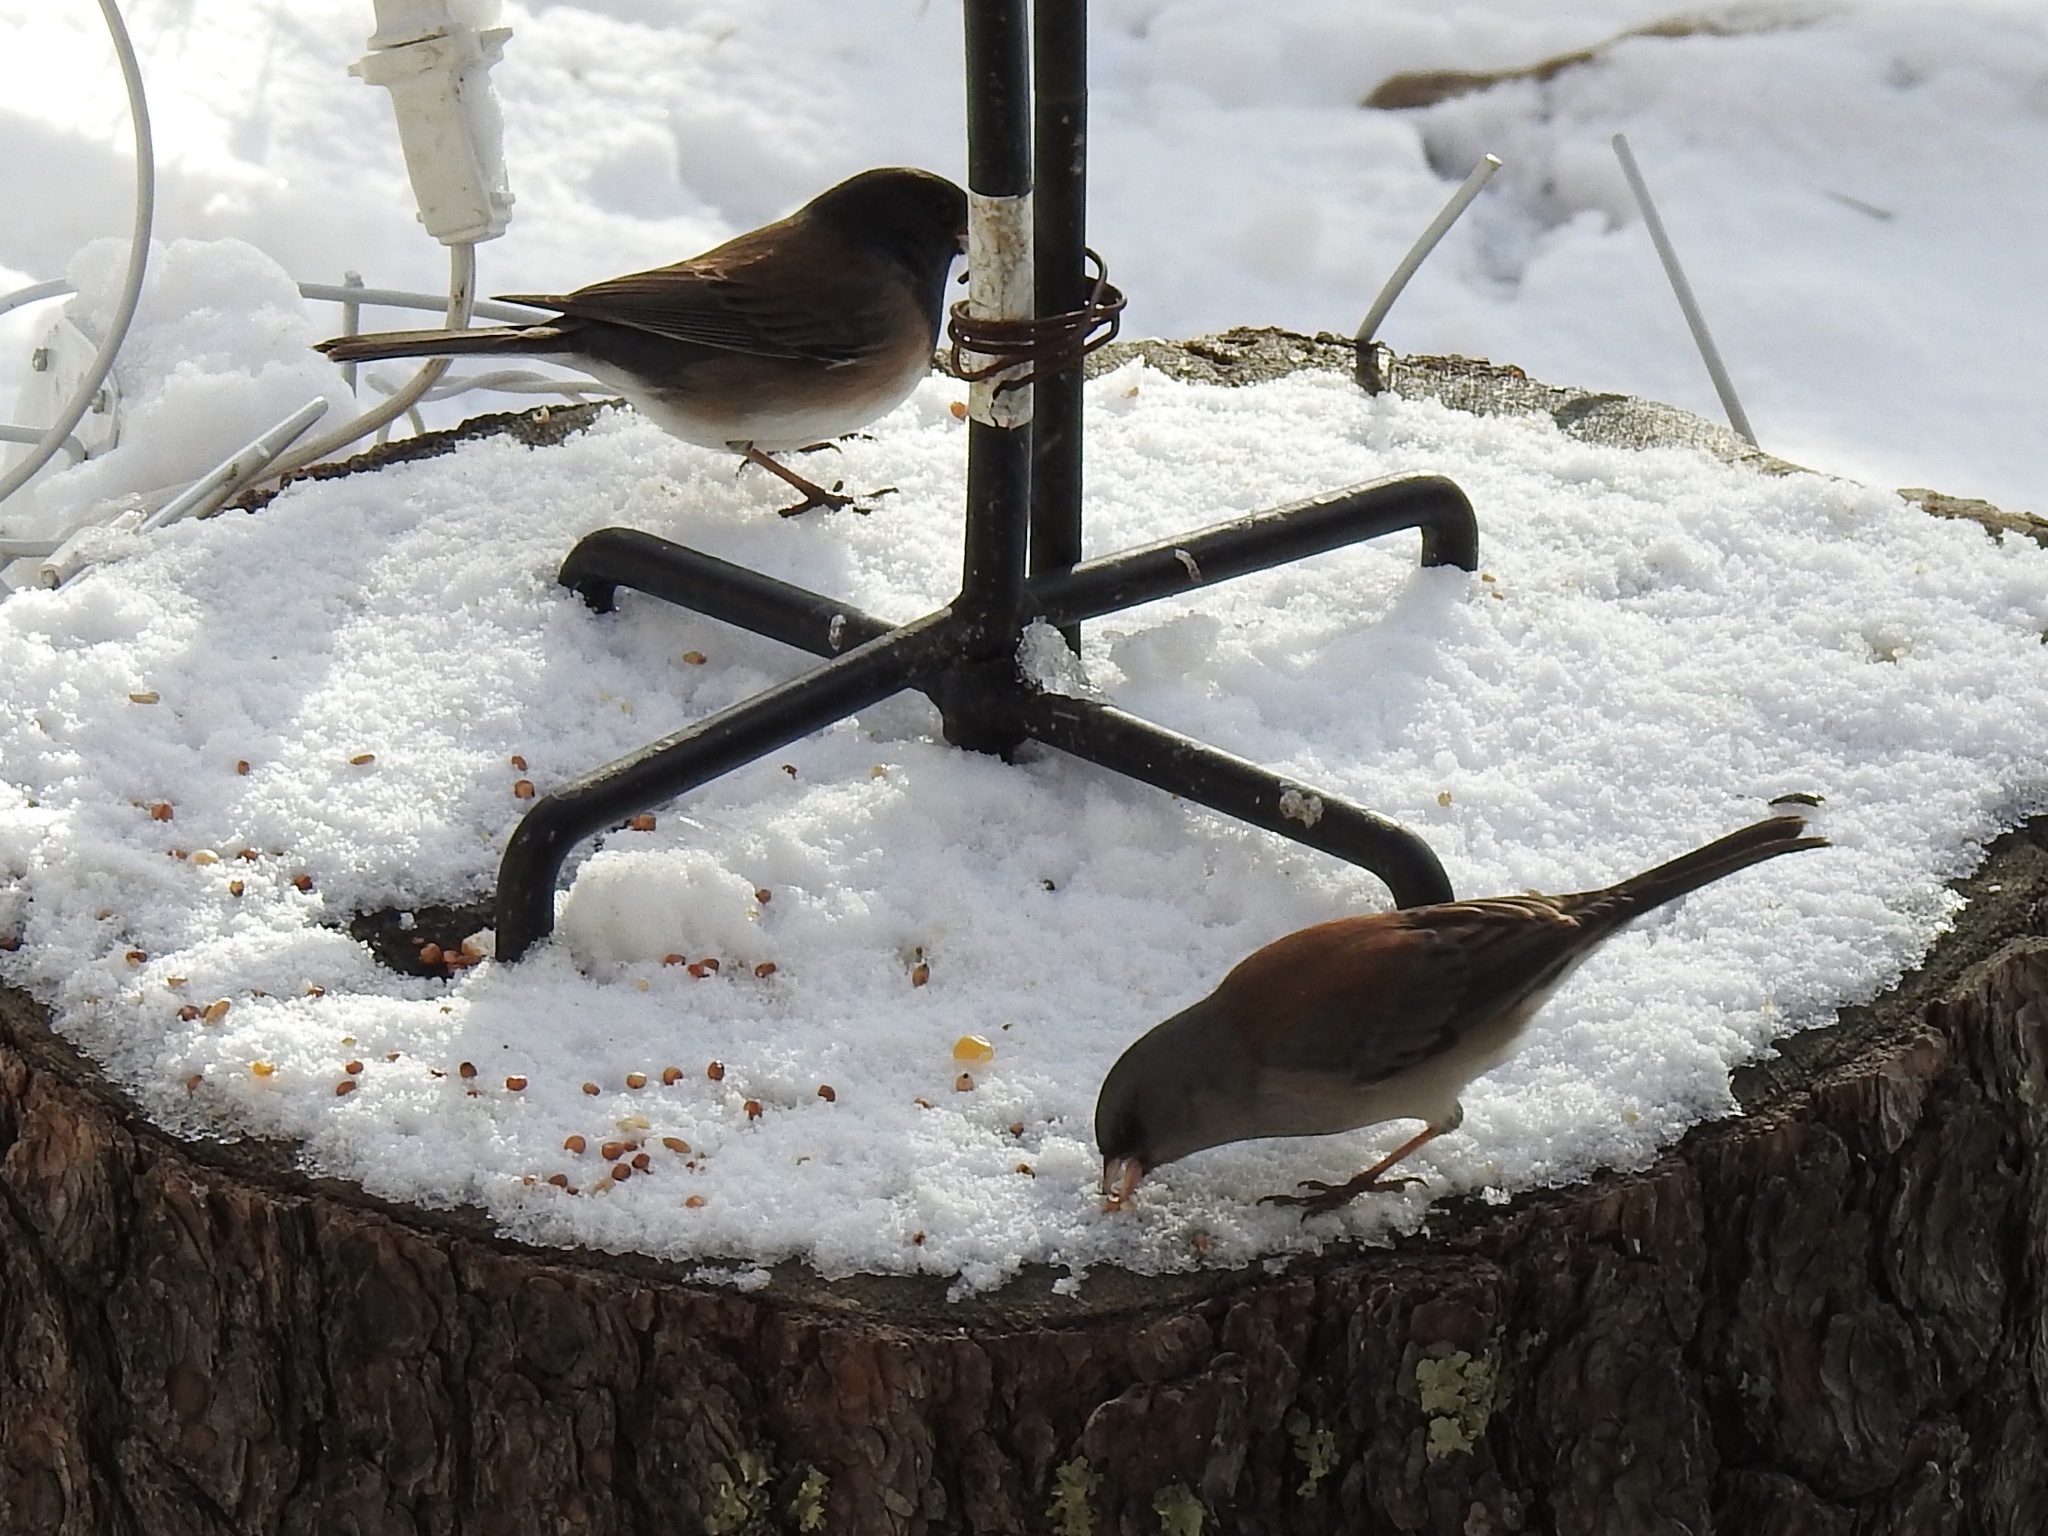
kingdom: Animalia
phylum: Chordata
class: Aves
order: Passeriformes
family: Passerellidae
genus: Junco
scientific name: Junco hyemalis
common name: Dark-eyed junco
